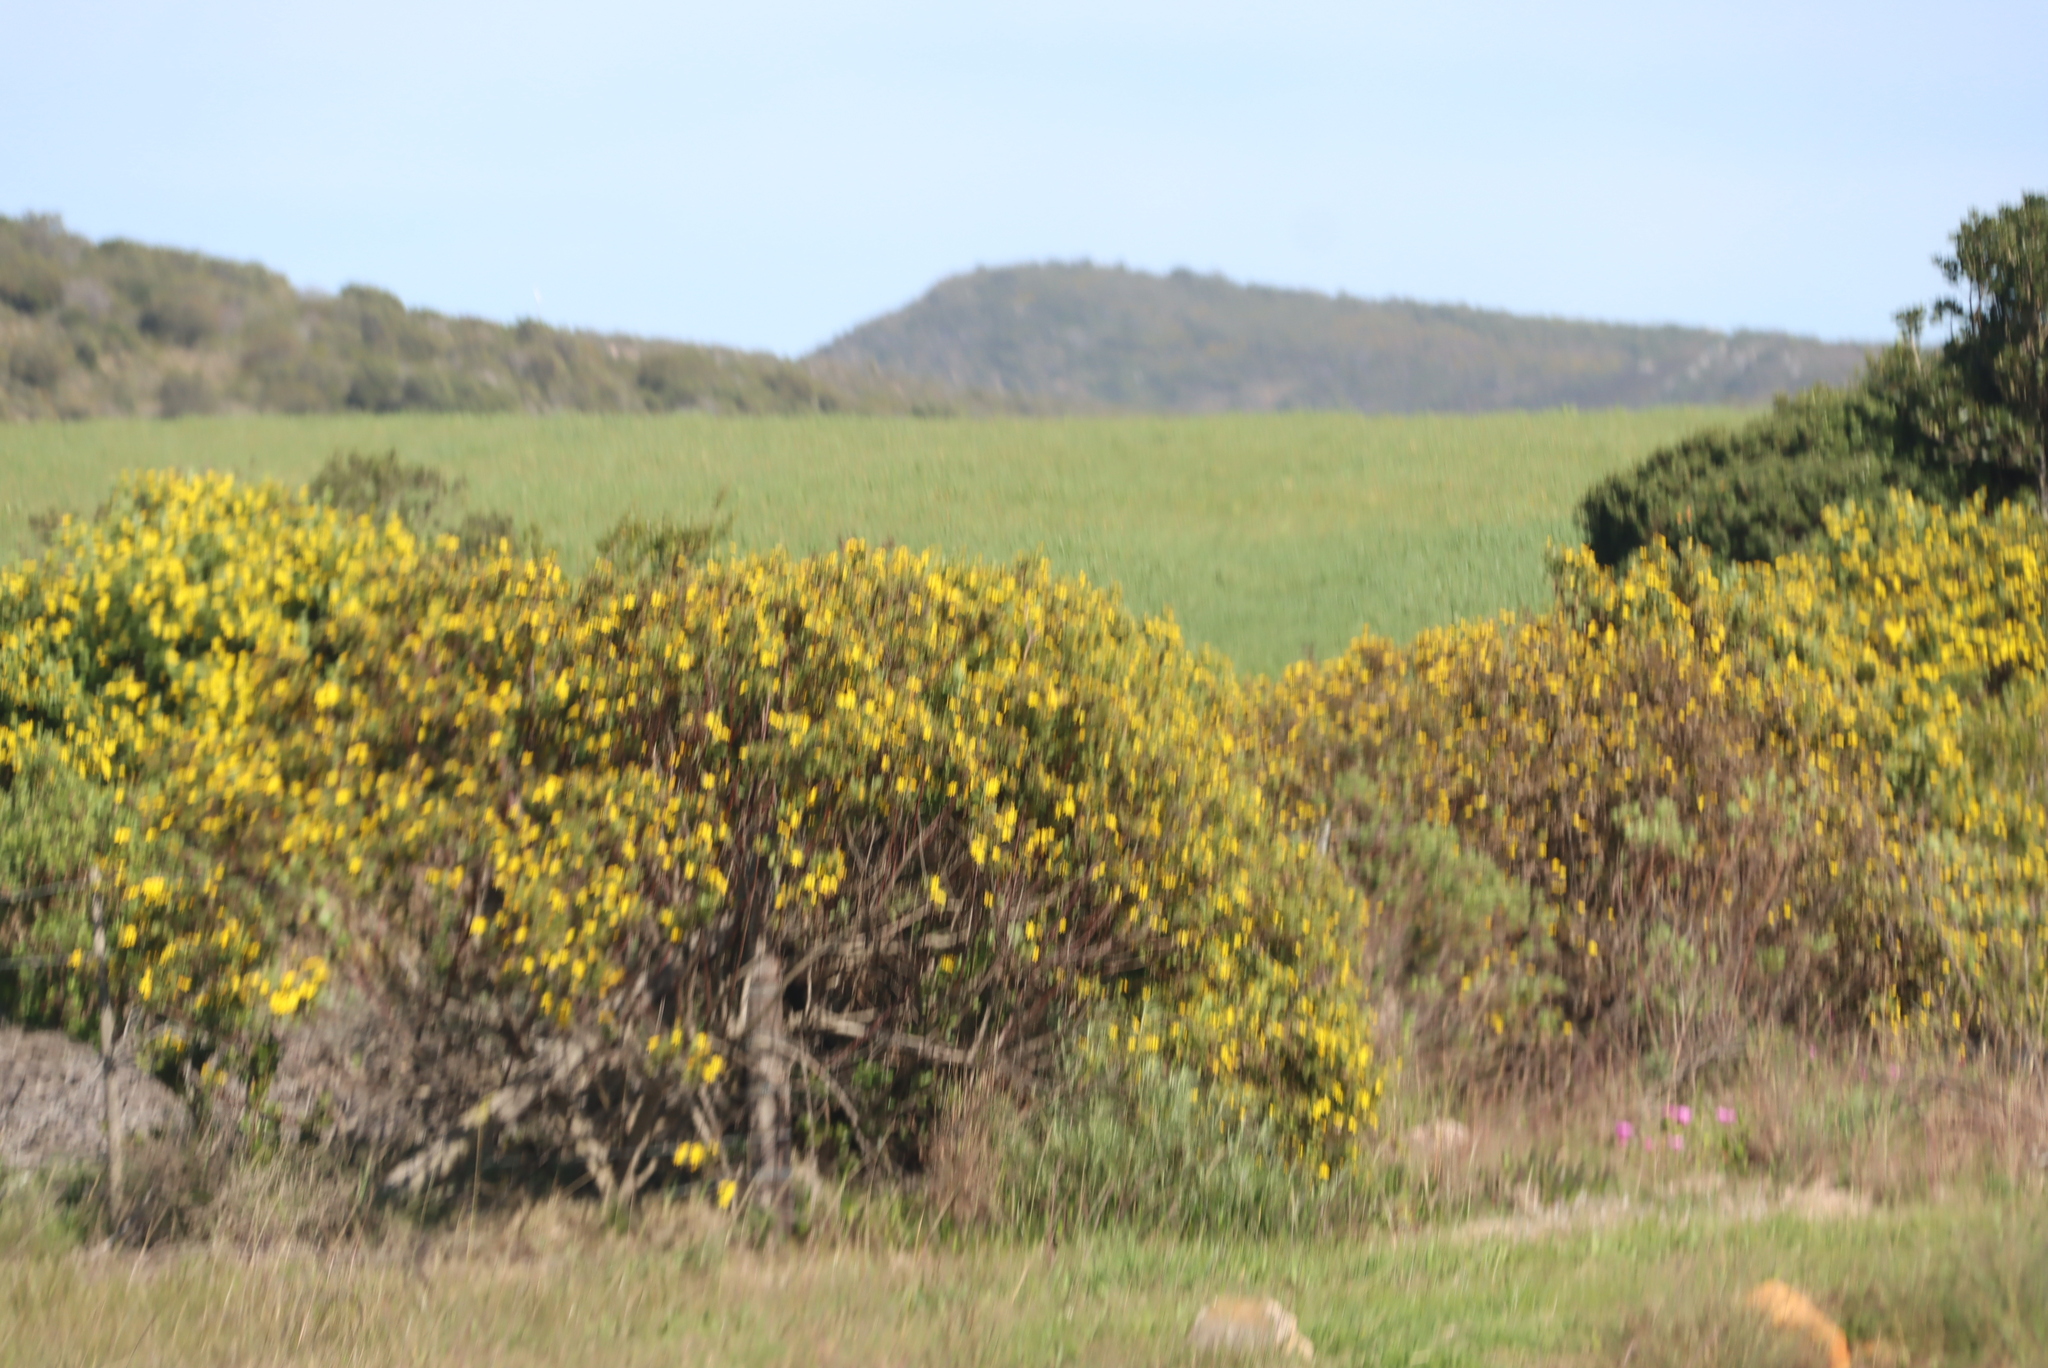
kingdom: Plantae
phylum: Tracheophyta
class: Magnoliopsida
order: Asterales
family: Asteraceae
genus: Osteospermum
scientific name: Osteospermum moniliferum
